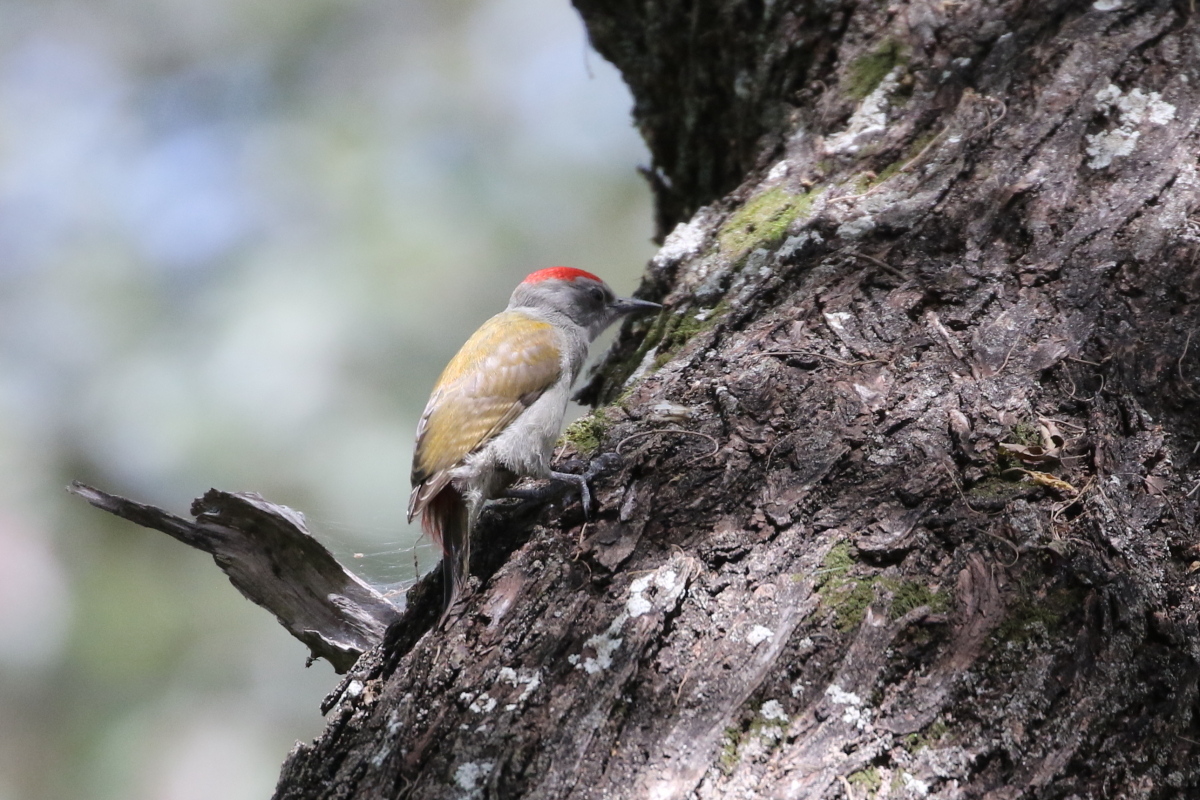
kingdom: Animalia
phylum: Chordata
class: Aves
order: Piciformes
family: Picidae
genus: Dendropicos
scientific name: Dendropicos spodocephalus
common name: Eastern grey woodpecker
